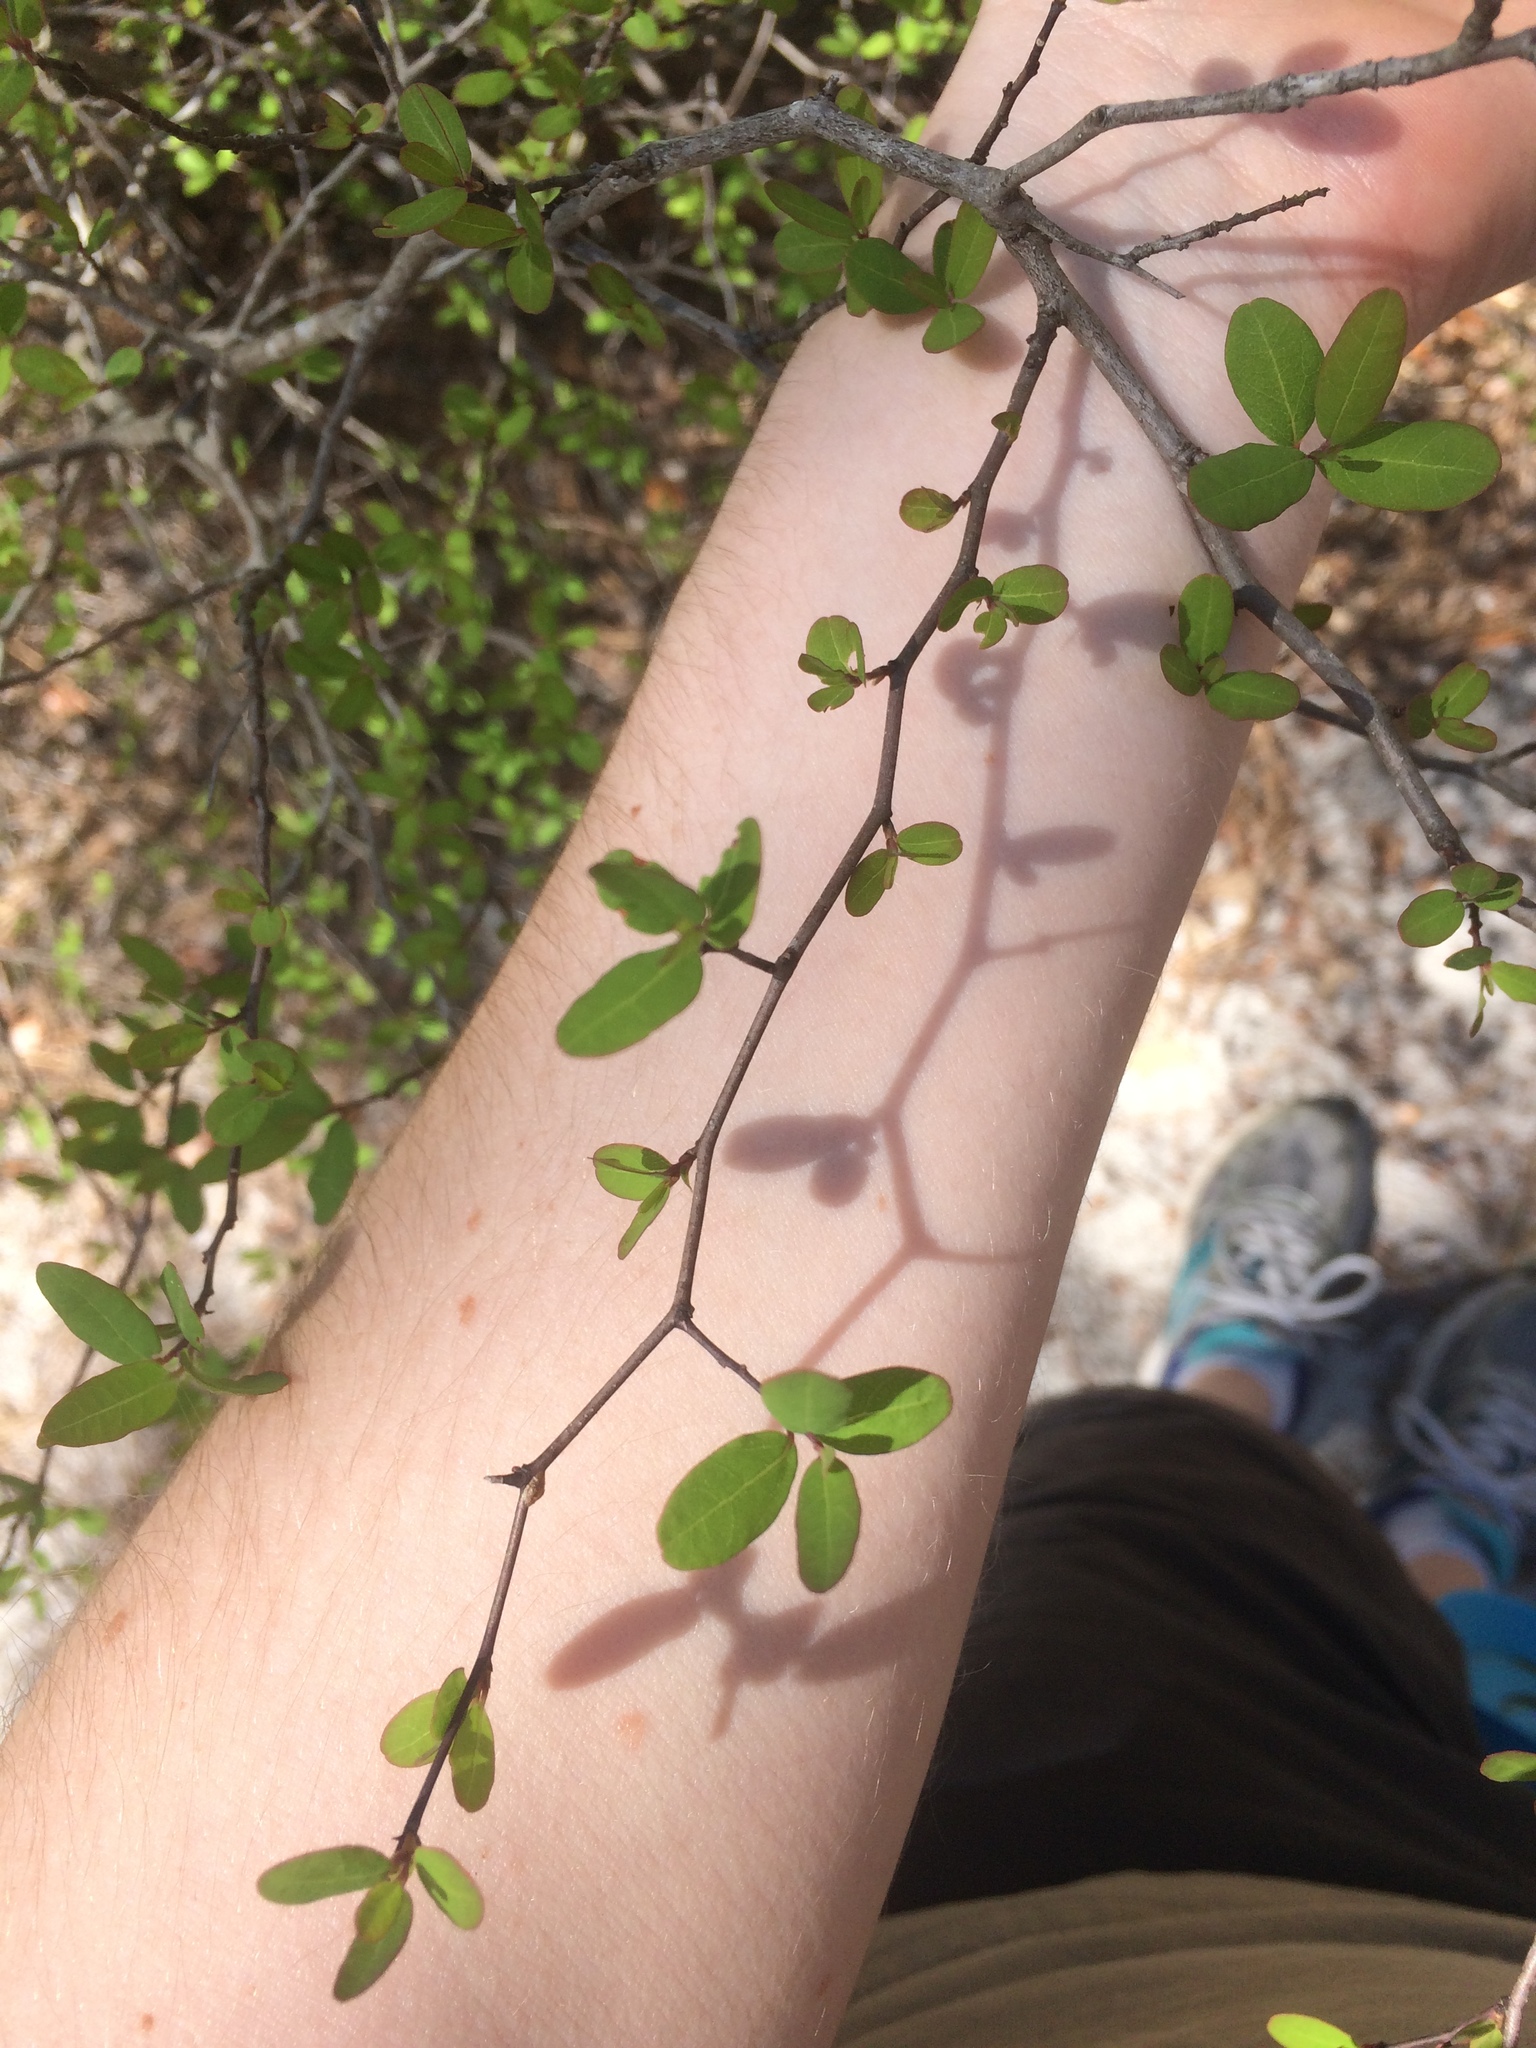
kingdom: Plantae
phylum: Tracheophyta
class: Magnoliopsida
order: Laurales
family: Lauraceae
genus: Litsea
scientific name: Litsea aestivalis
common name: Pondspice
